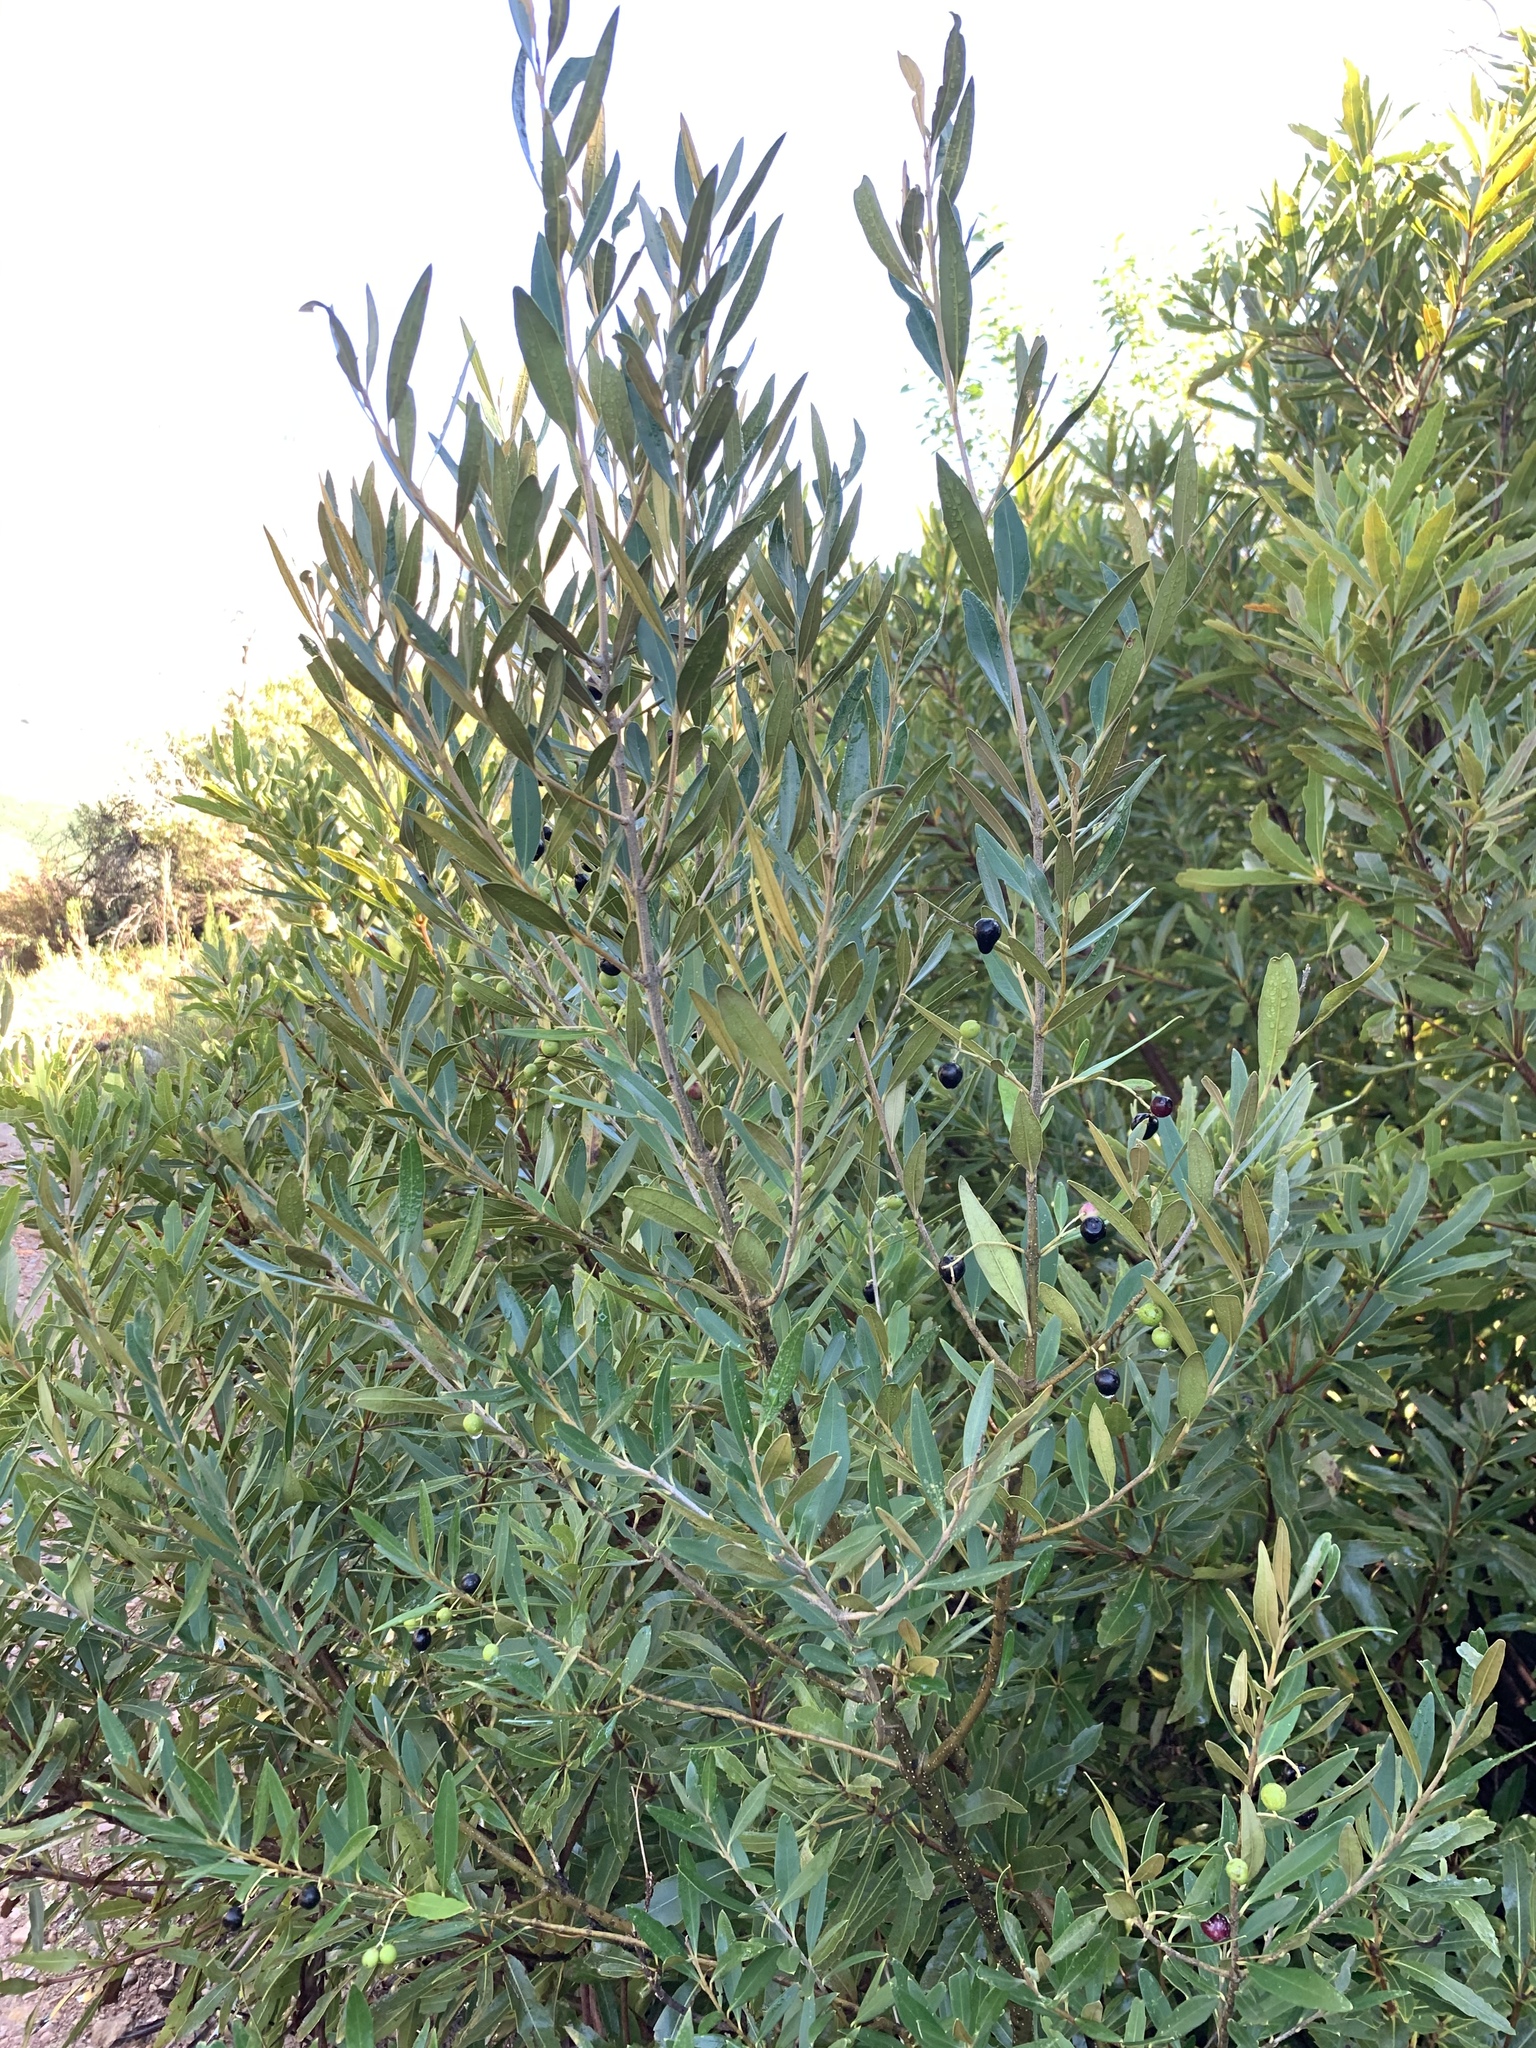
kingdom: Plantae
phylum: Tracheophyta
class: Magnoliopsida
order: Lamiales
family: Oleaceae
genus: Olea
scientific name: Olea europaea
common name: Olive
